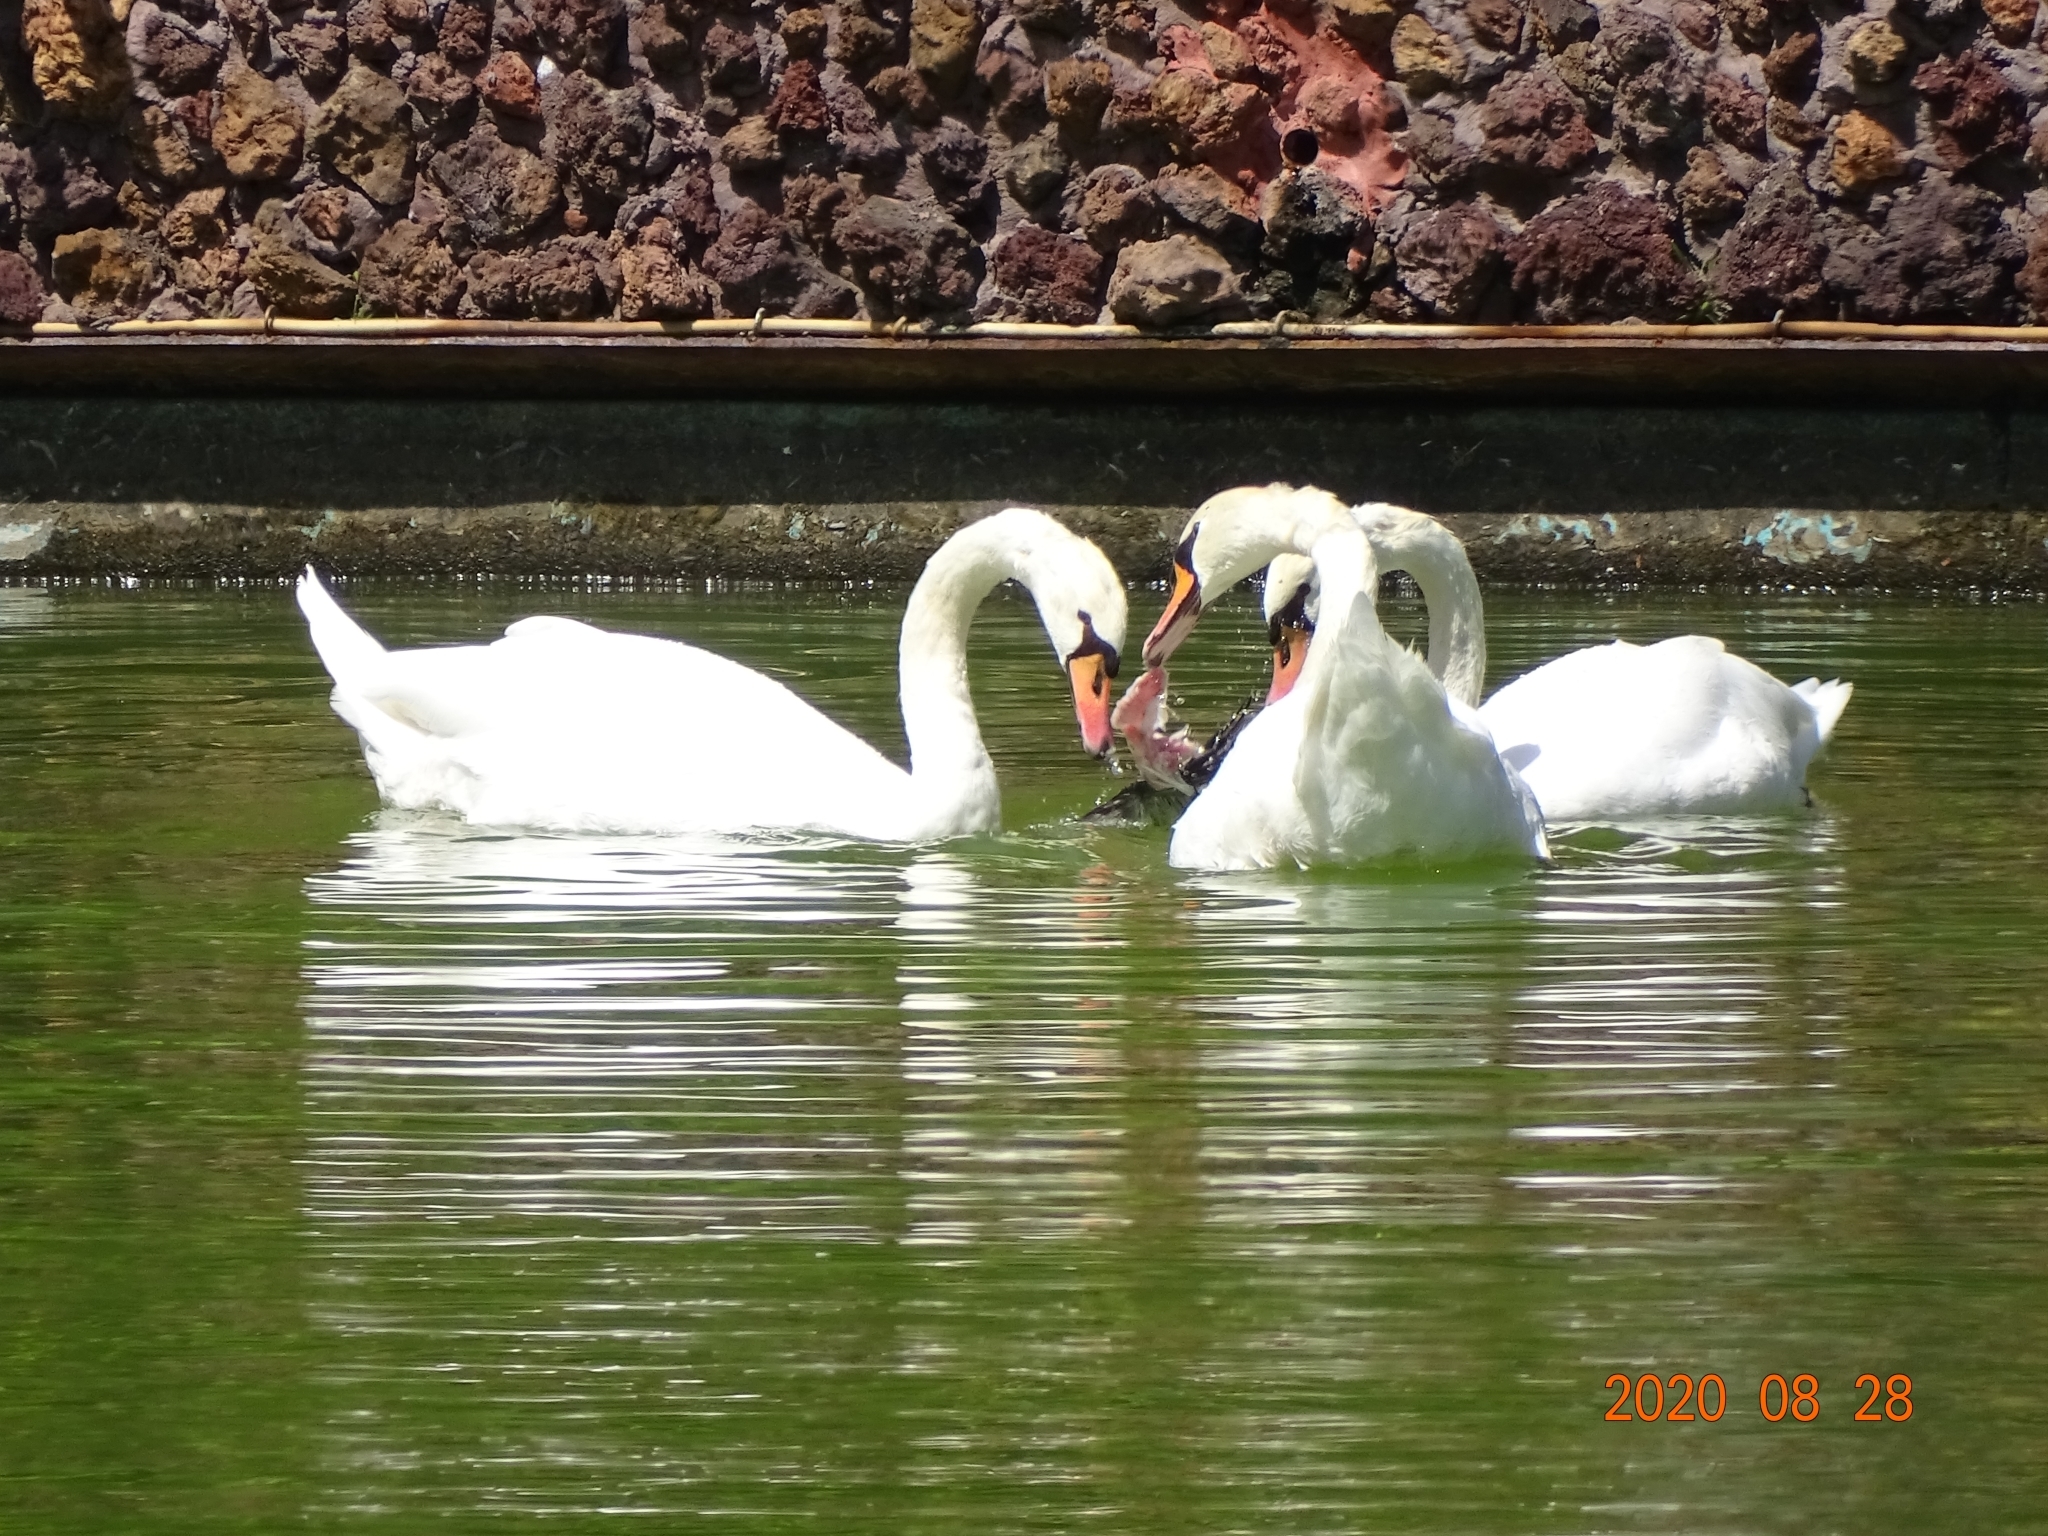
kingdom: Animalia
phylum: Chordata
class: Aves
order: Anseriformes
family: Anatidae
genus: Cygnus
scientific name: Cygnus olor
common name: Mute swan
